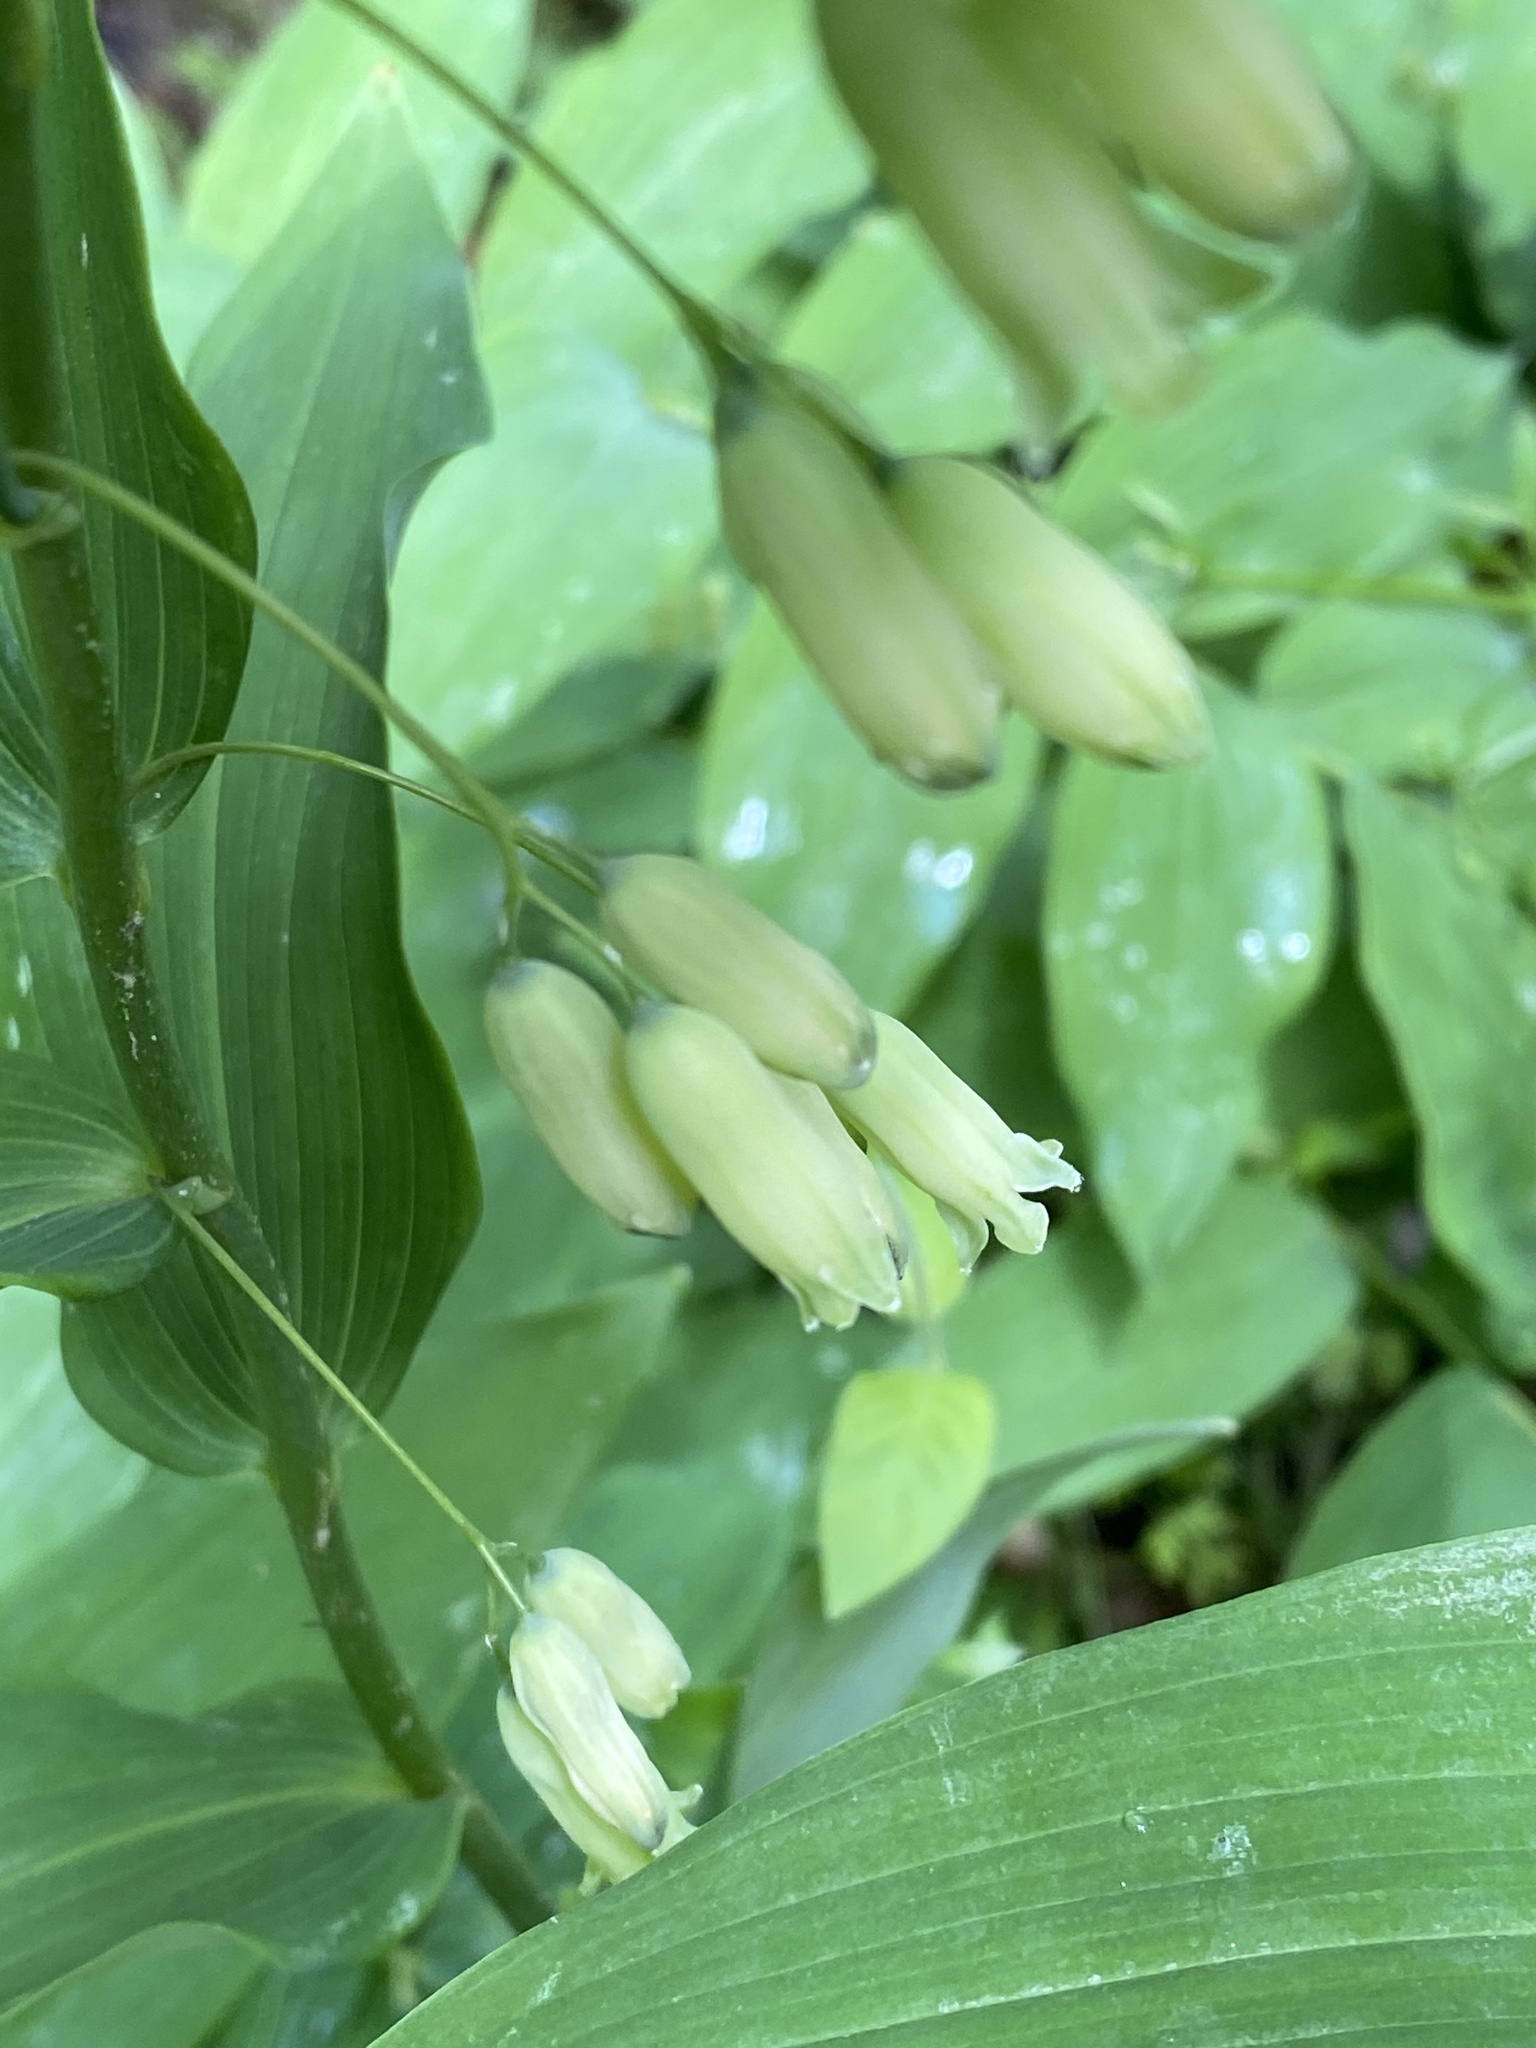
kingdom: Plantae
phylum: Tracheophyta
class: Liliopsida
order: Asparagales
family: Asparagaceae
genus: Polygonatum
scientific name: Polygonatum biflorum
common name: American solomon's-seal
